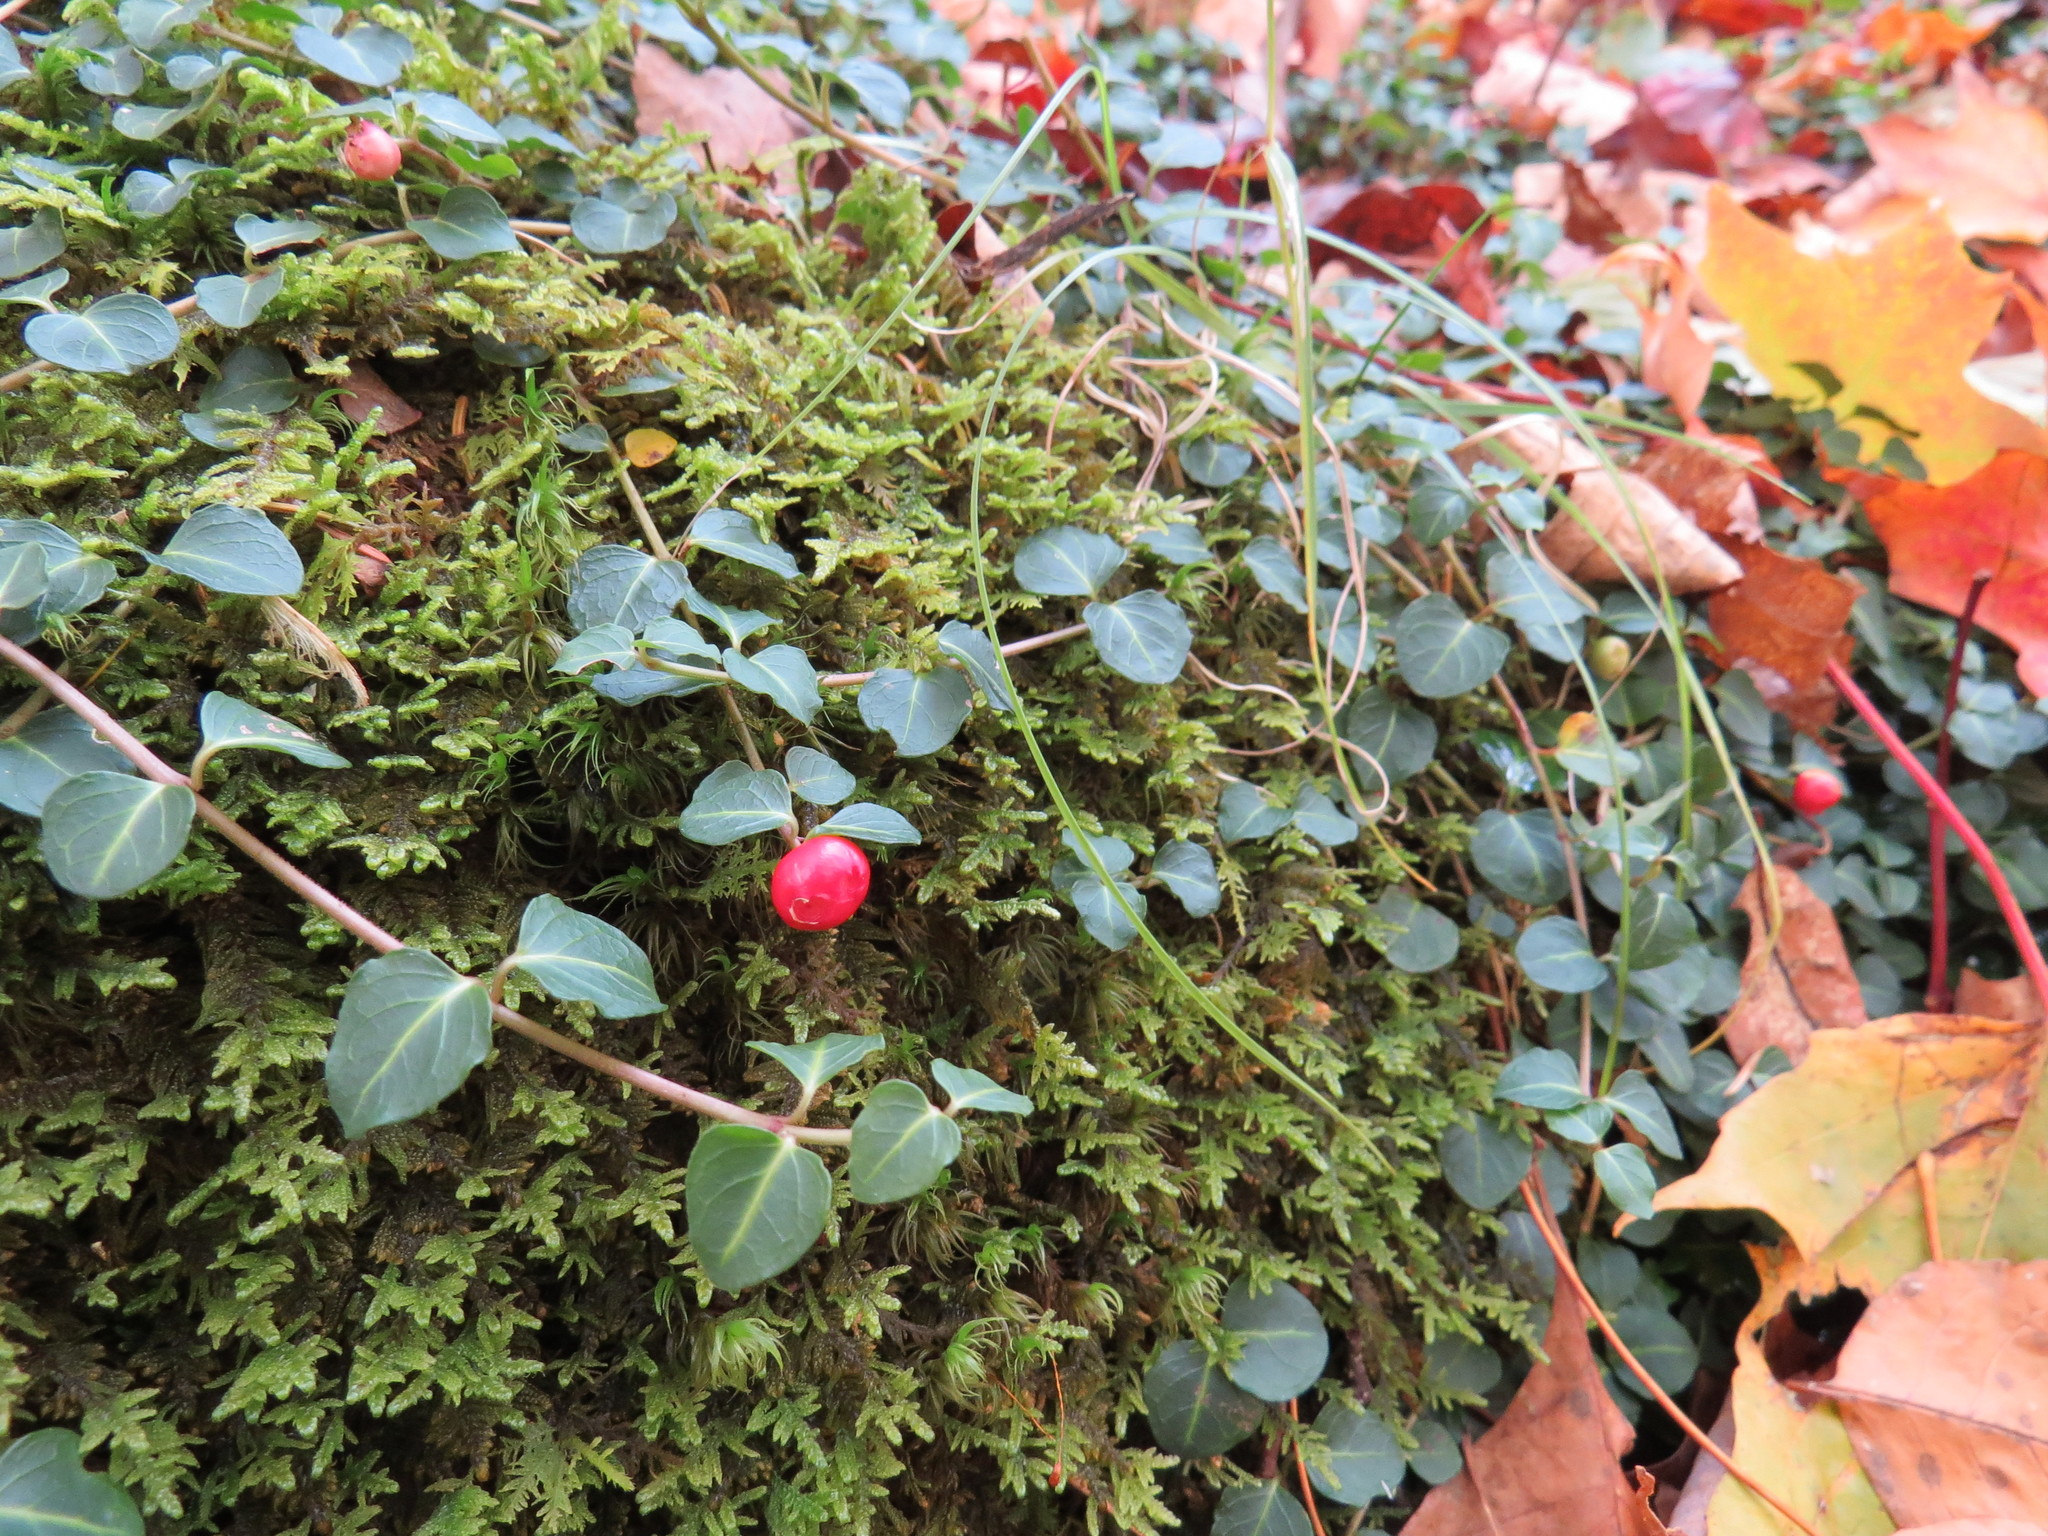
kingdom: Plantae
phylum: Tracheophyta
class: Magnoliopsida
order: Gentianales
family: Rubiaceae
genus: Mitchella
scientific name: Mitchella repens
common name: Partridge-berry
